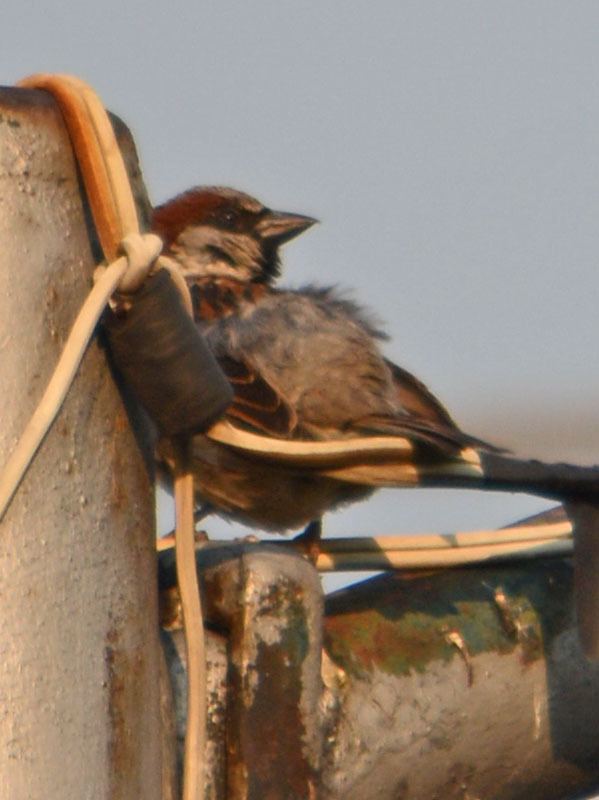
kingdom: Animalia
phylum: Chordata
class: Aves
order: Passeriformes
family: Passeridae
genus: Passer
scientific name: Passer domesticus
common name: House sparrow
